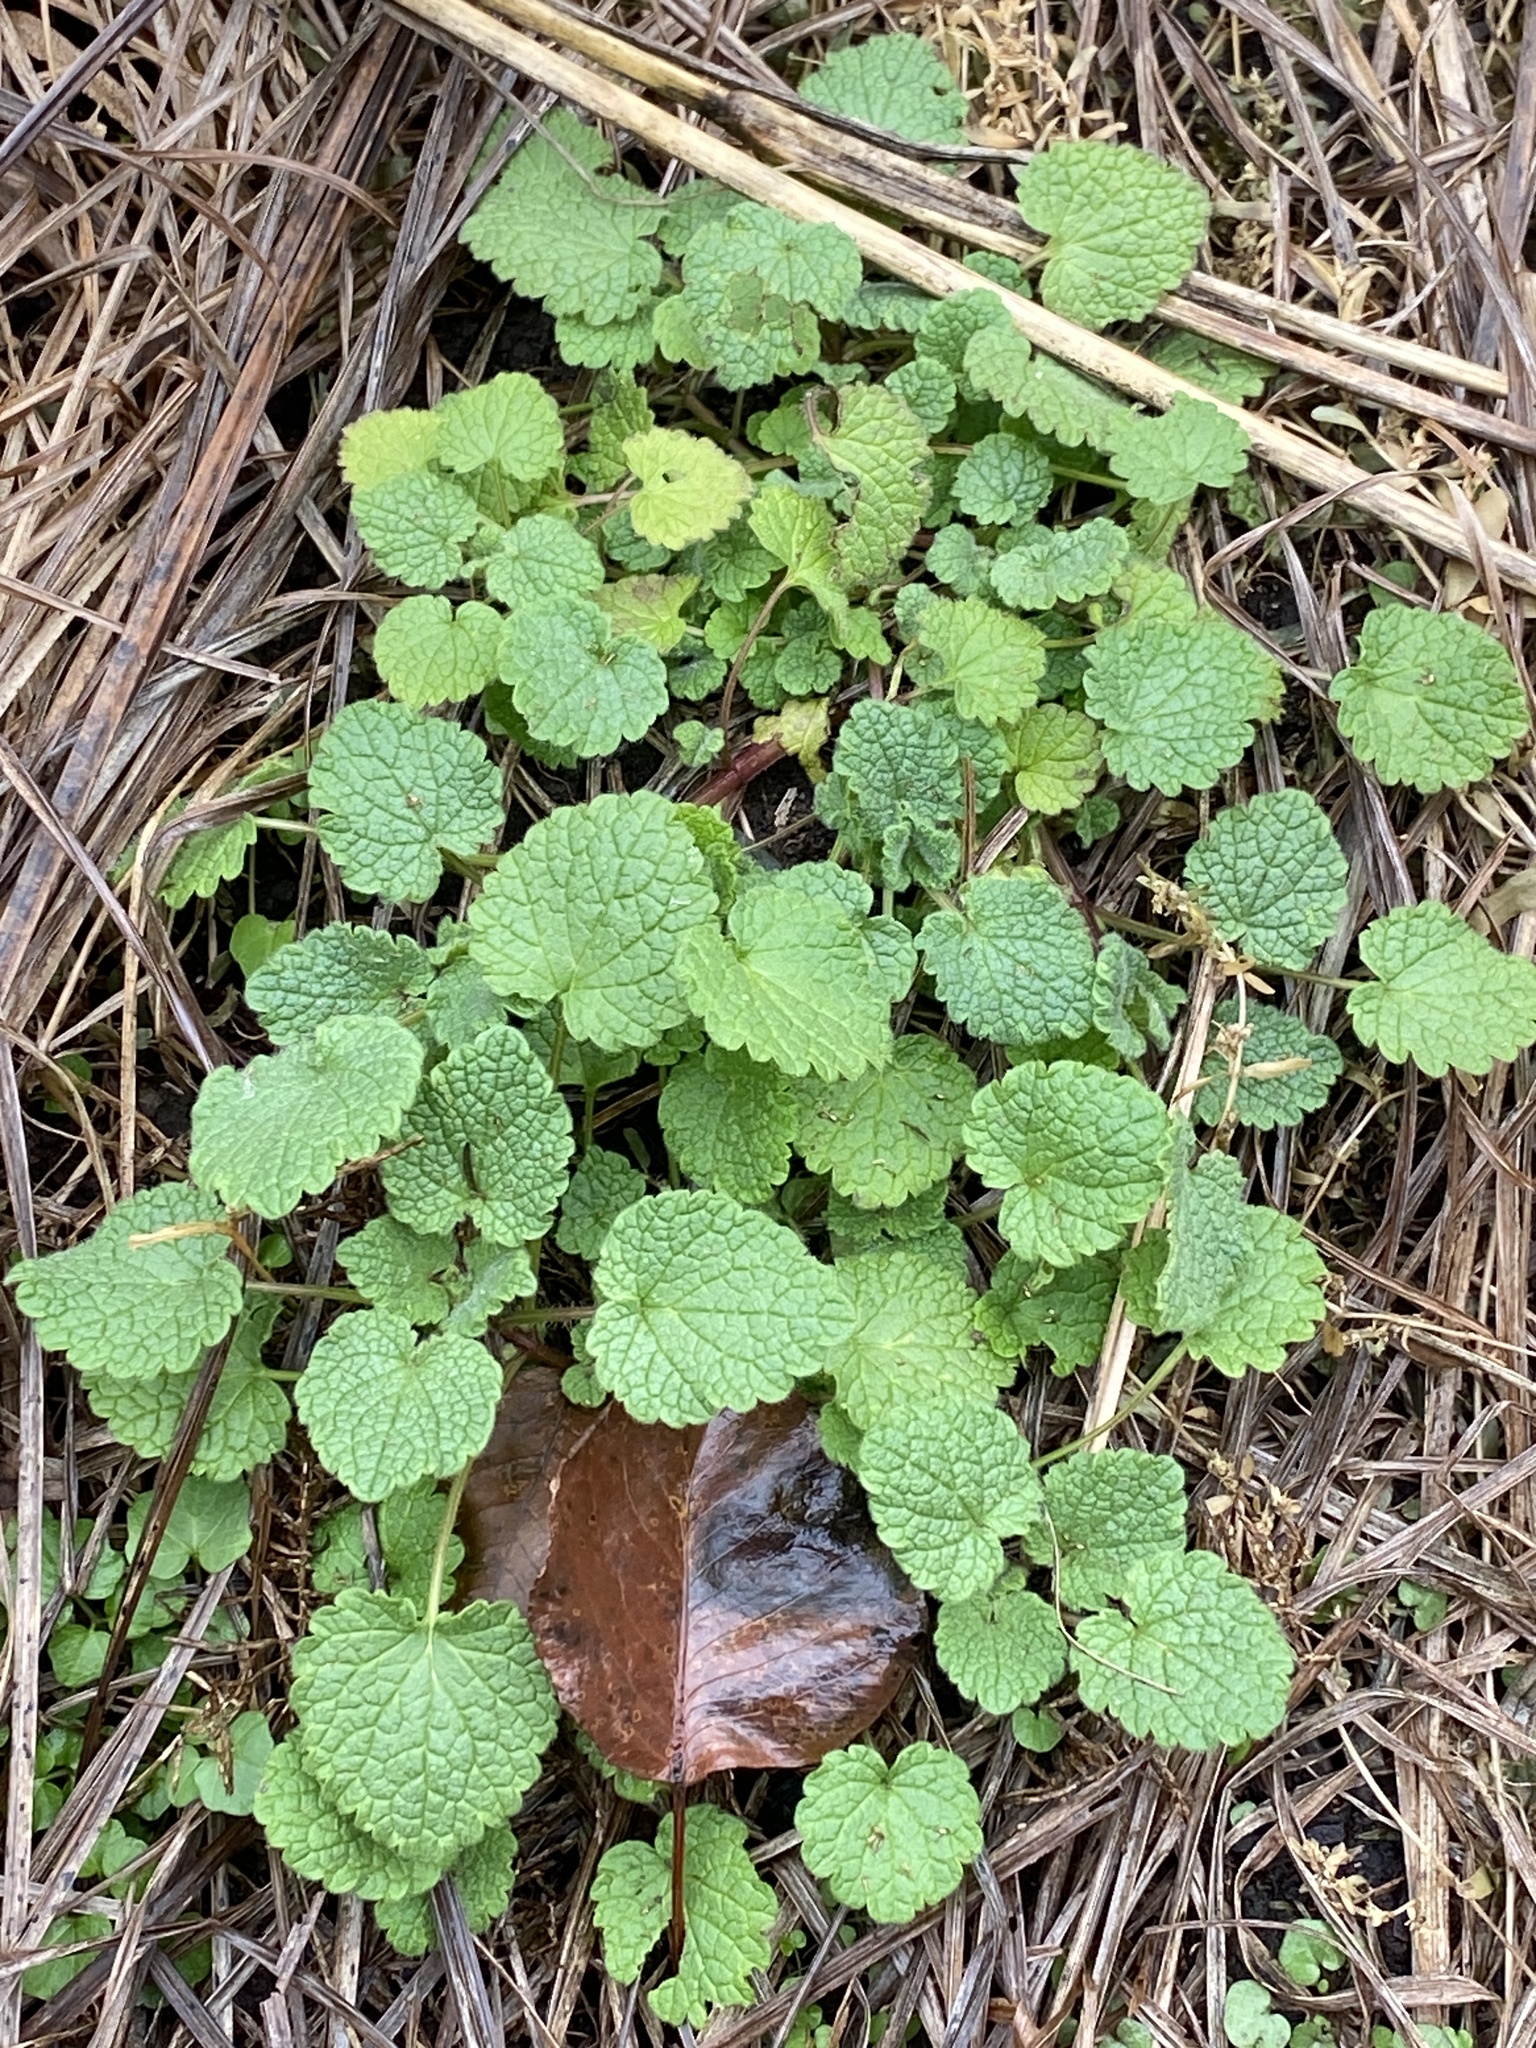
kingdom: Plantae
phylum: Tracheophyta
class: Magnoliopsida
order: Lamiales
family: Lamiaceae
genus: Lamium
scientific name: Lamium purpureum
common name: Red dead-nettle
